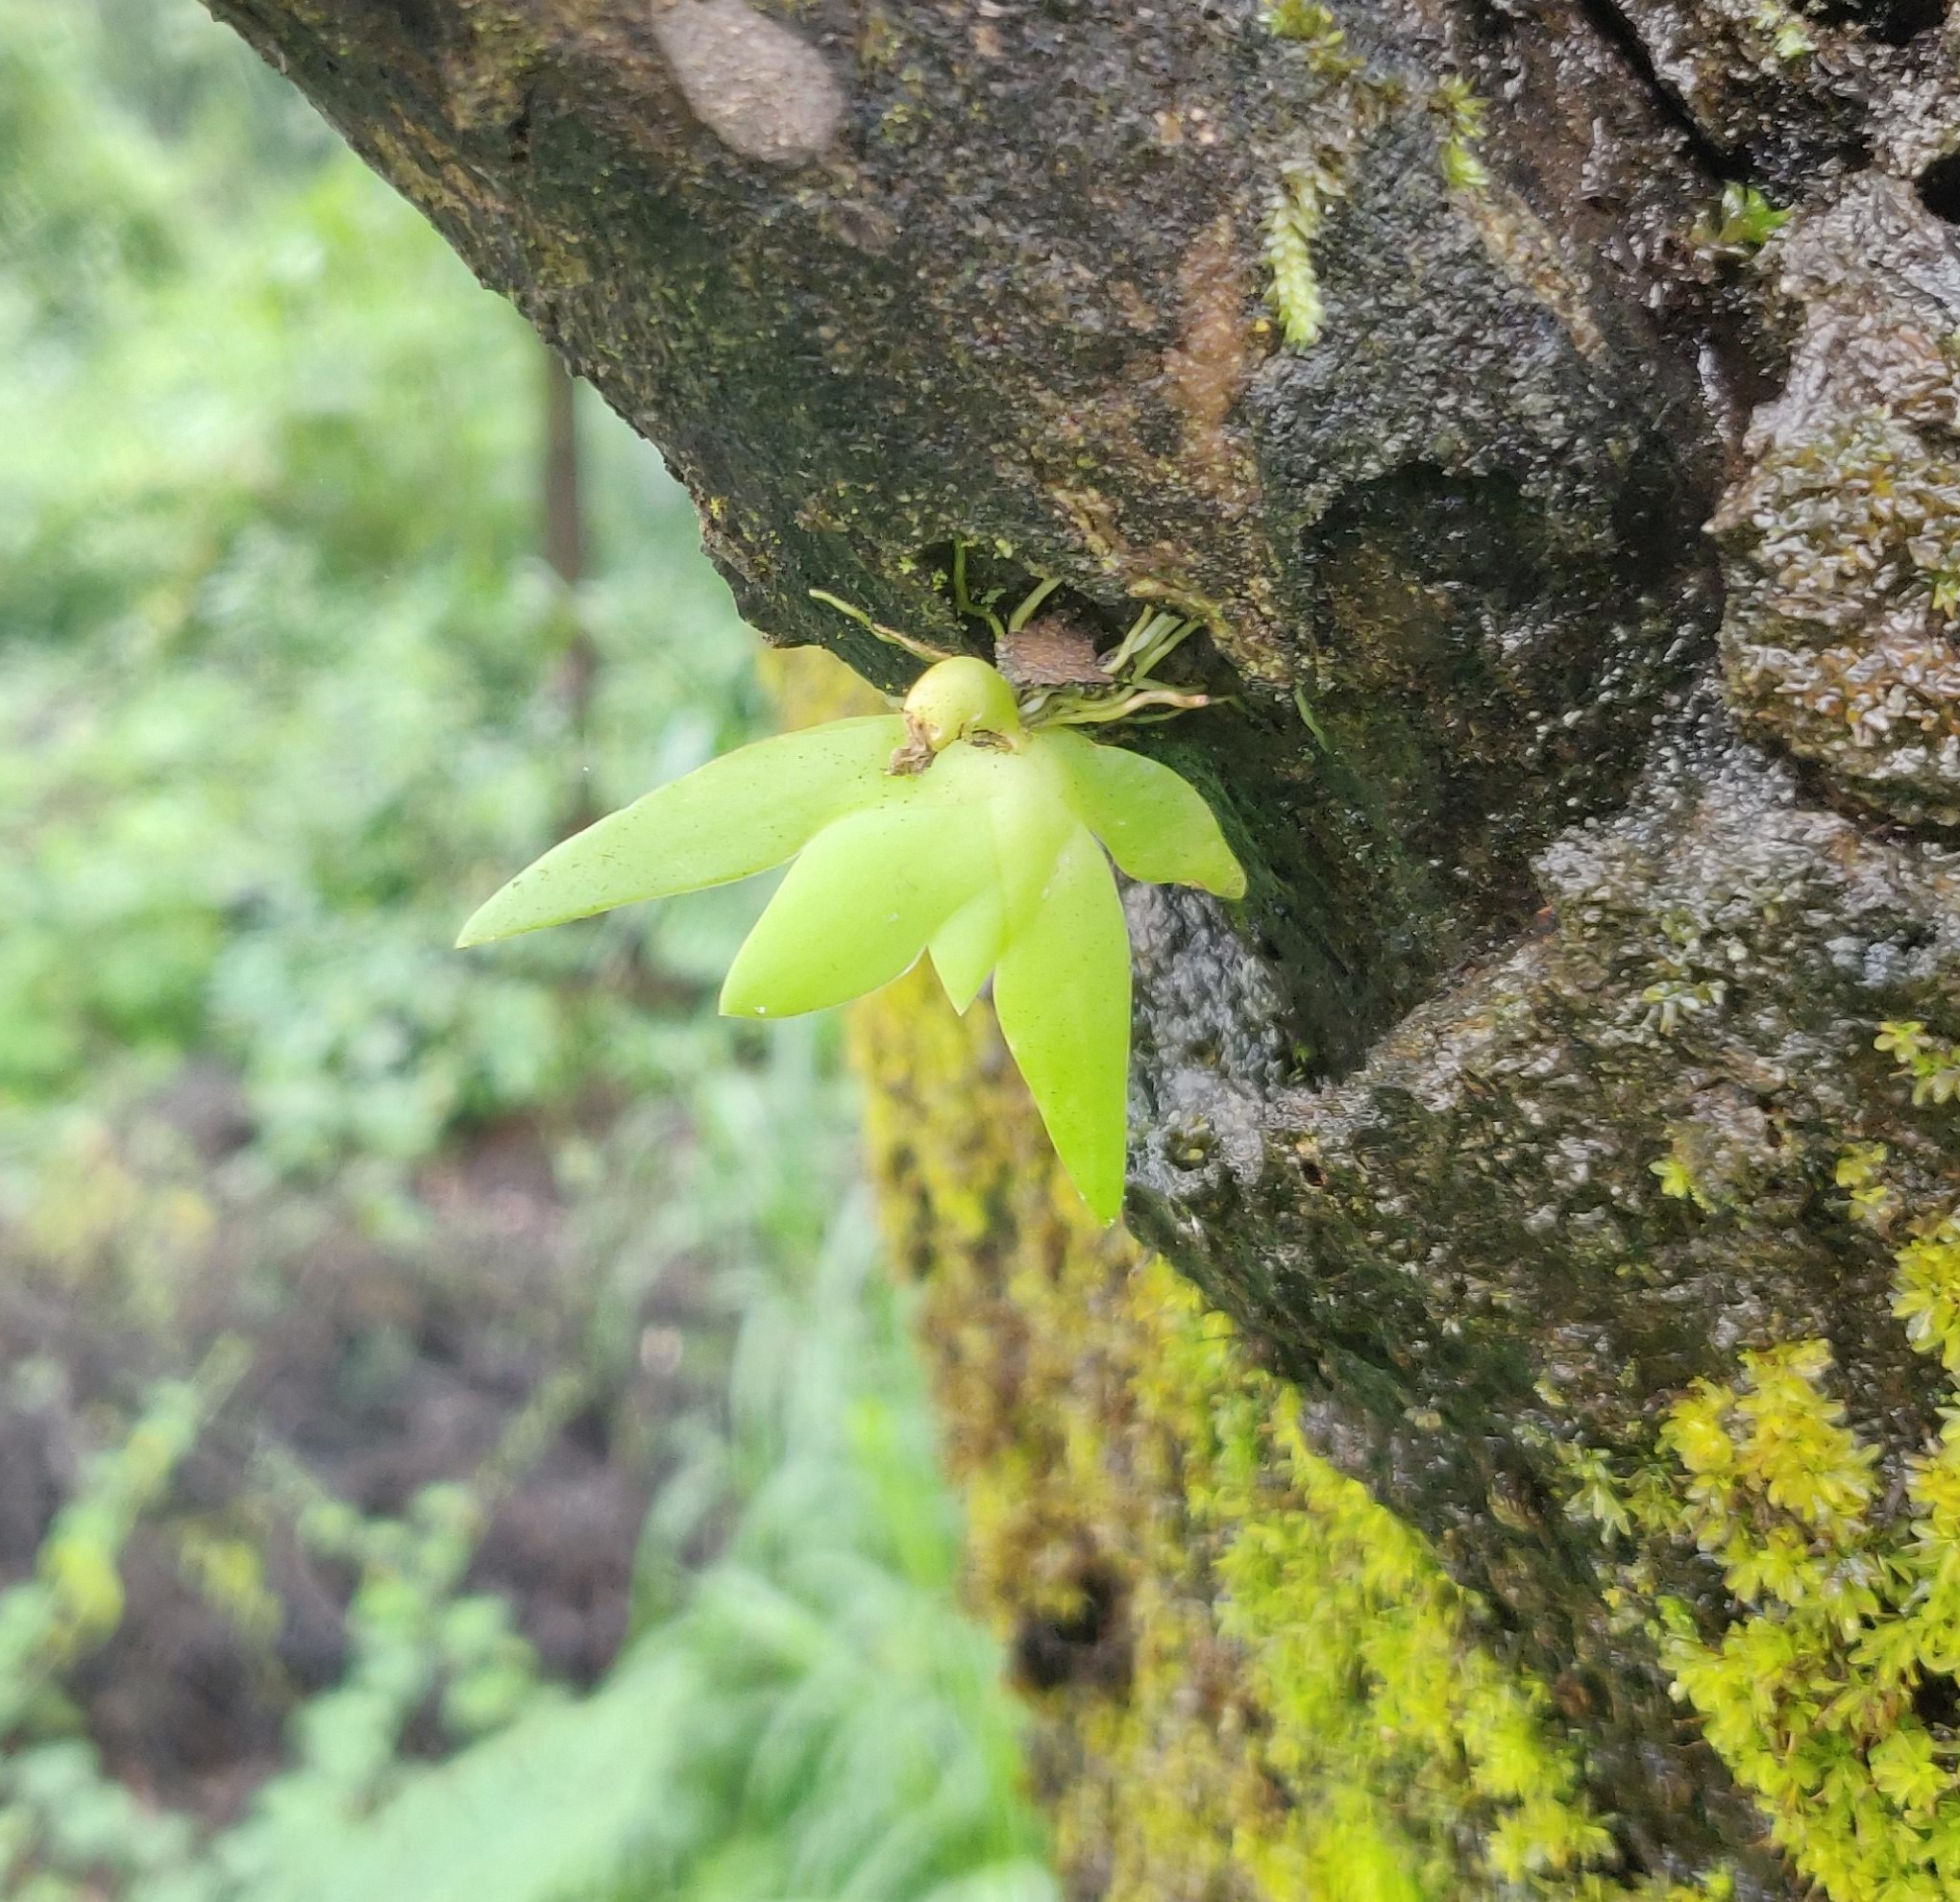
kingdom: Plantae
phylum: Tracheophyta
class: Liliopsida
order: Asparagales
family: Orchidaceae
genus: Oberonia
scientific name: Oberonia brachystachys
